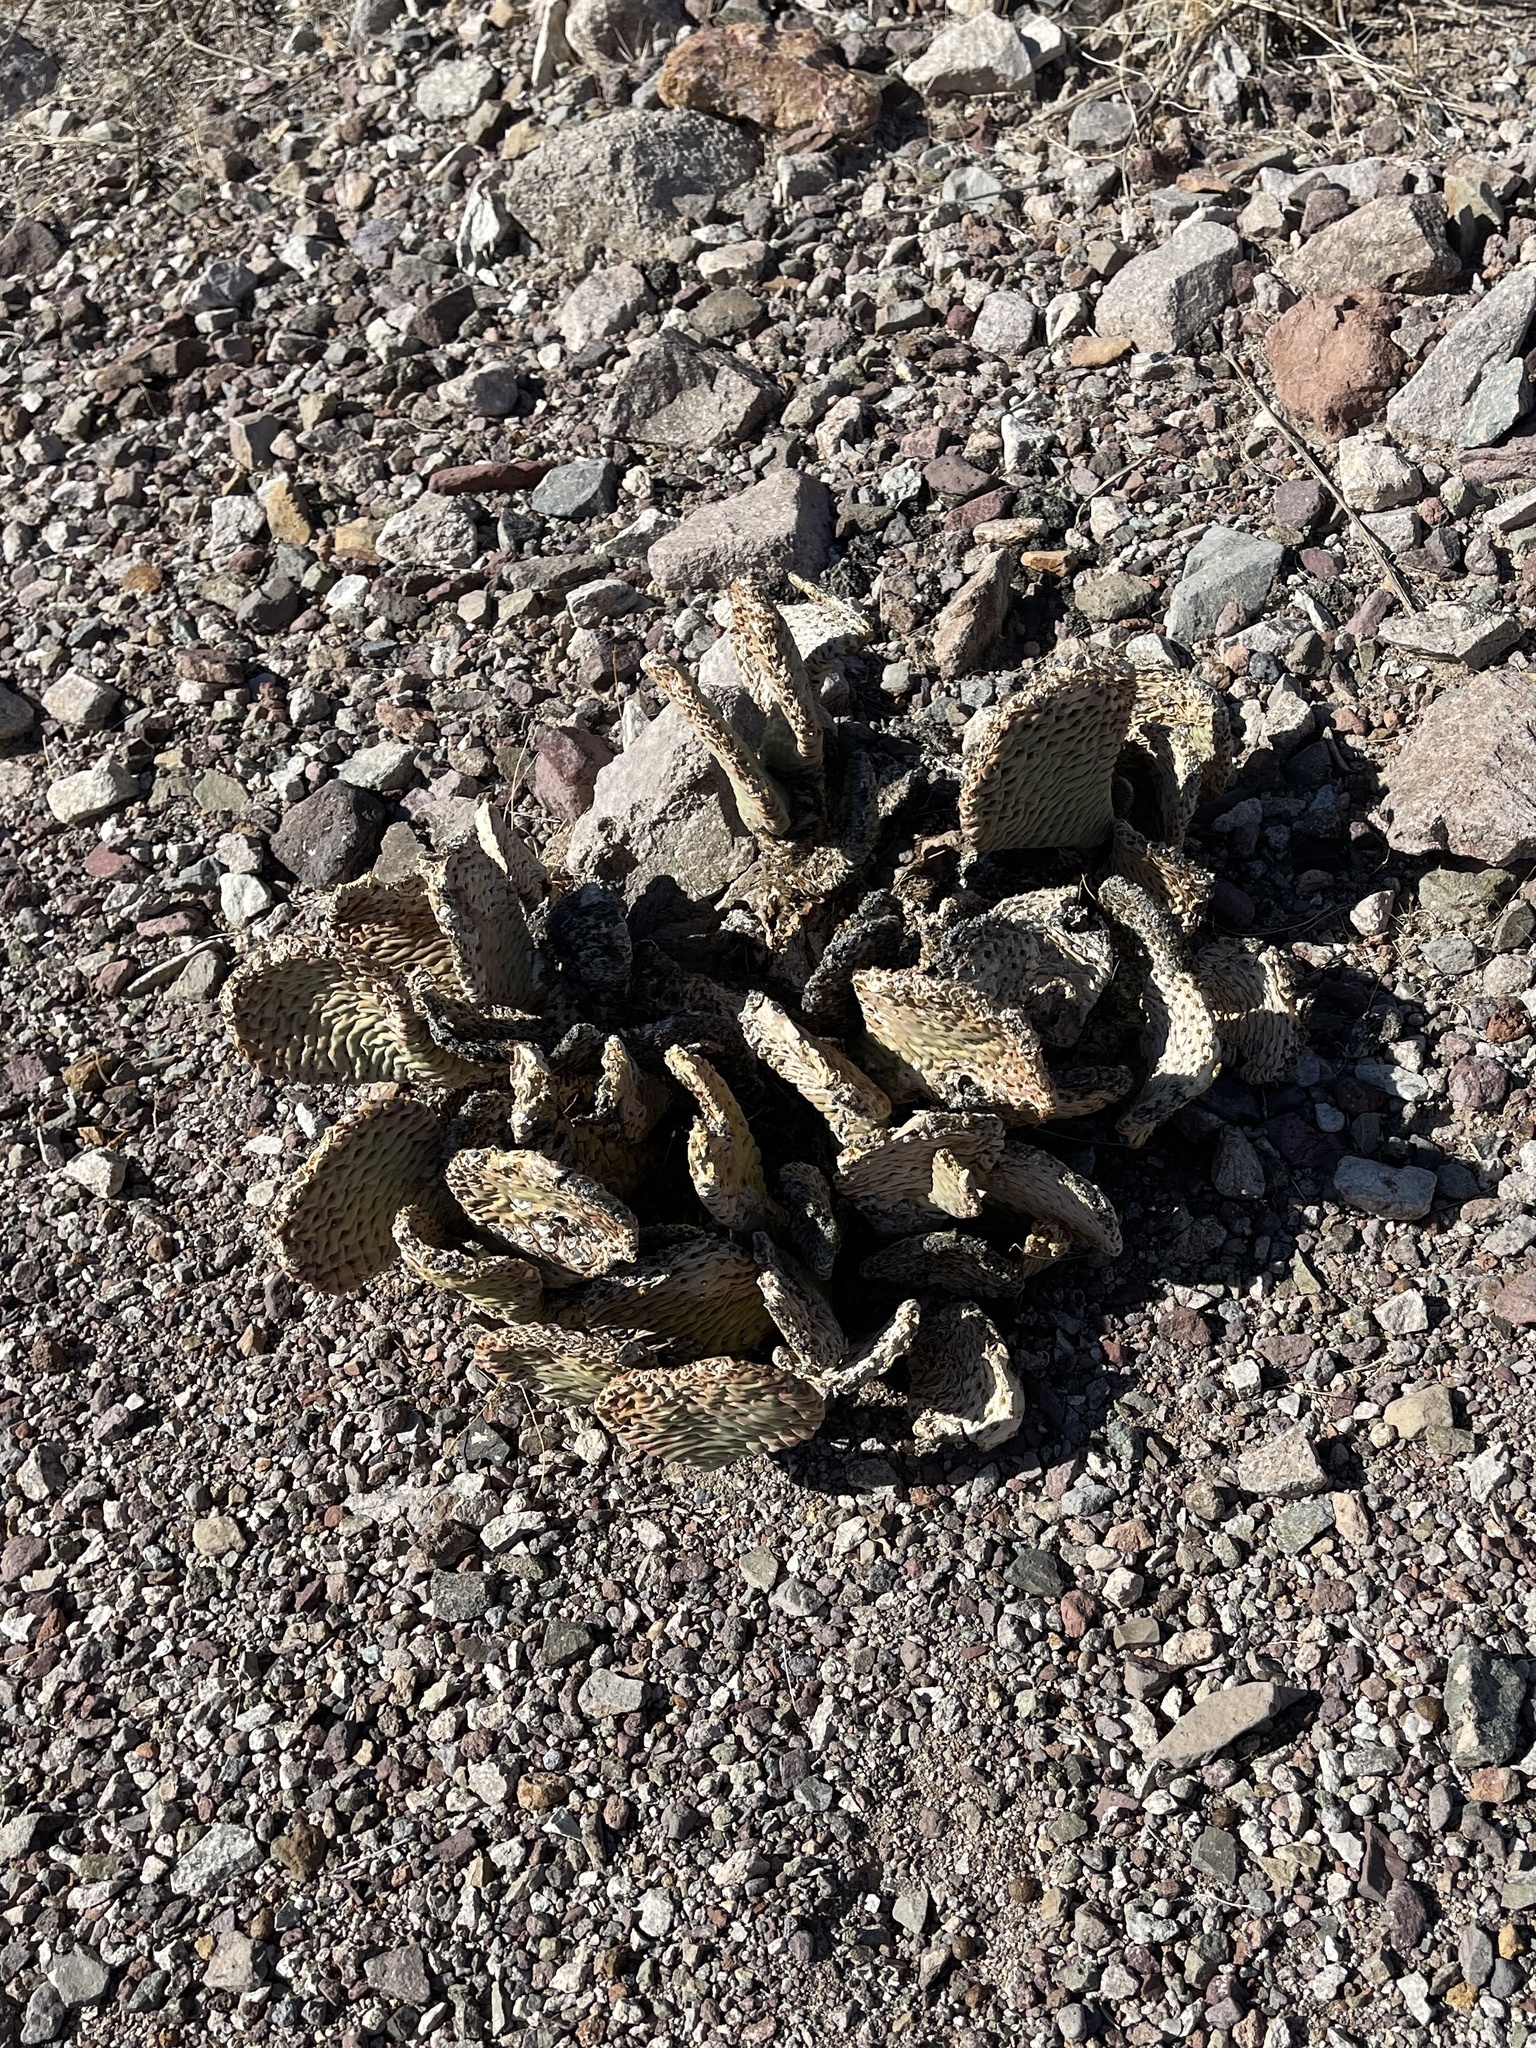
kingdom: Plantae
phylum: Tracheophyta
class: Magnoliopsida
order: Caryophyllales
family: Cactaceae
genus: Opuntia
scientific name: Opuntia basilaris
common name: Beavertail prickly-pear
